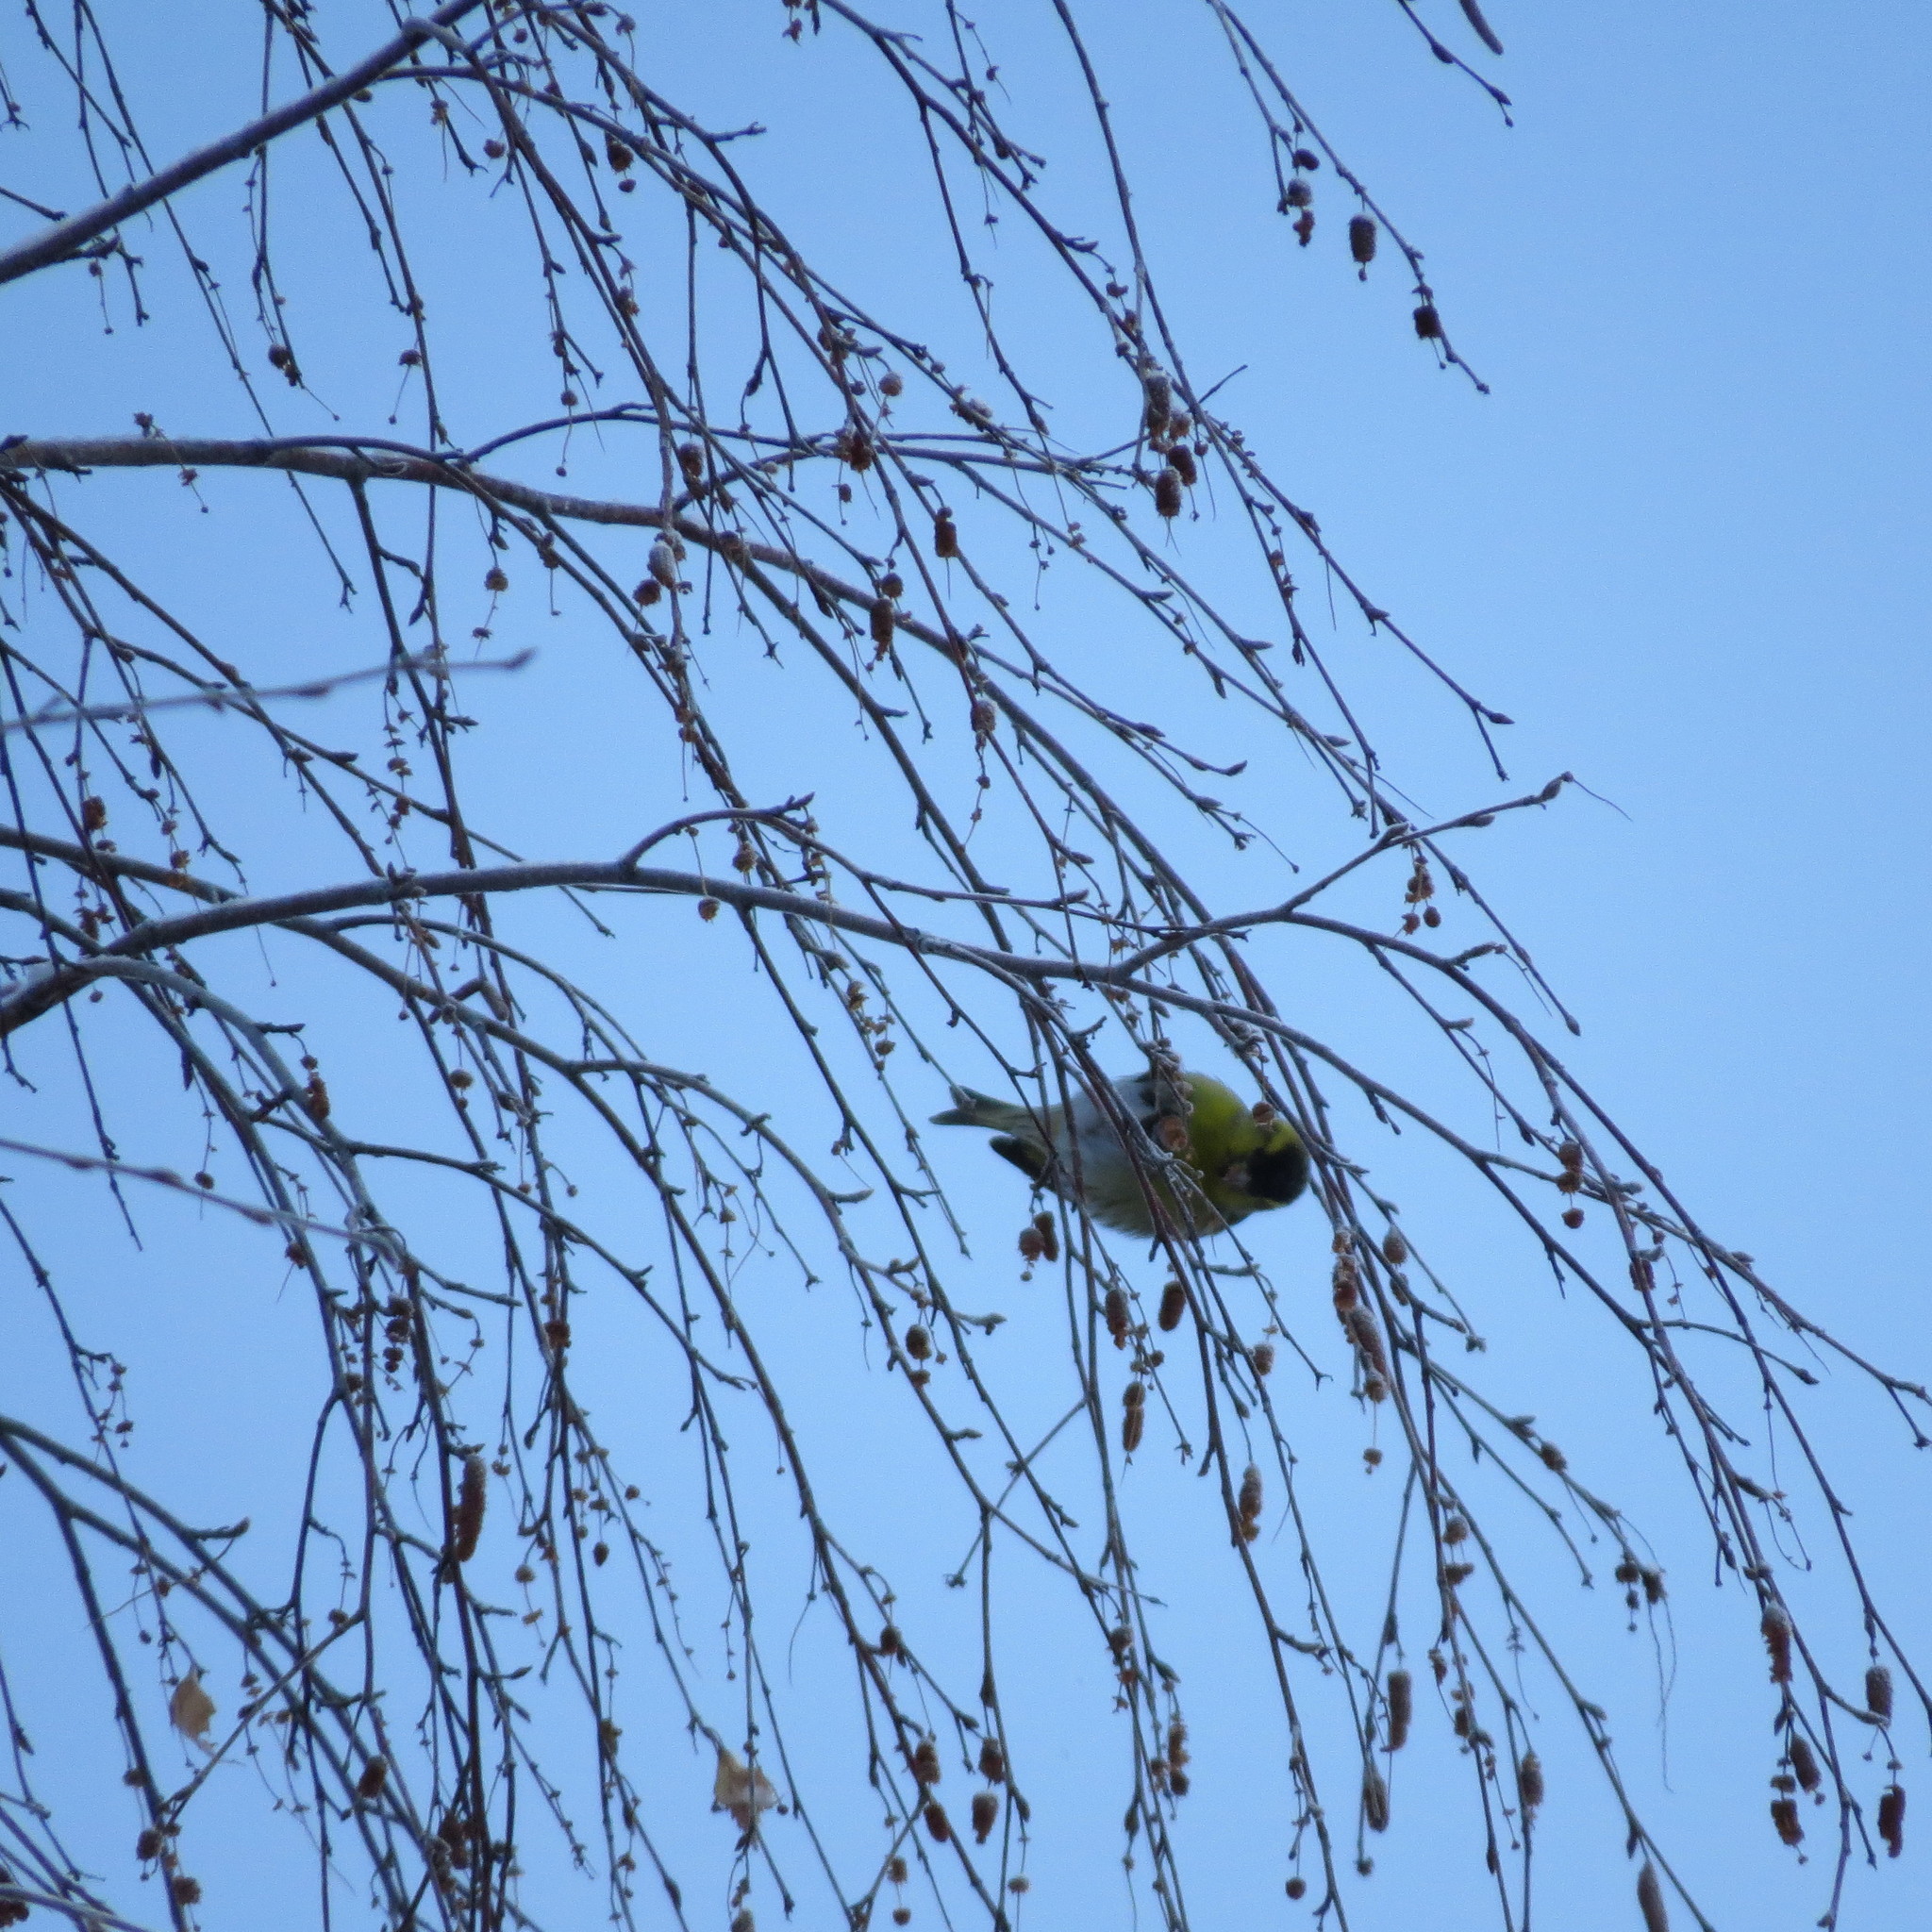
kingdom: Animalia
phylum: Chordata
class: Aves
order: Passeriformes
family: Fringillidae
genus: Spinus
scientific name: Spinus spinus
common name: Eurasian siskin
